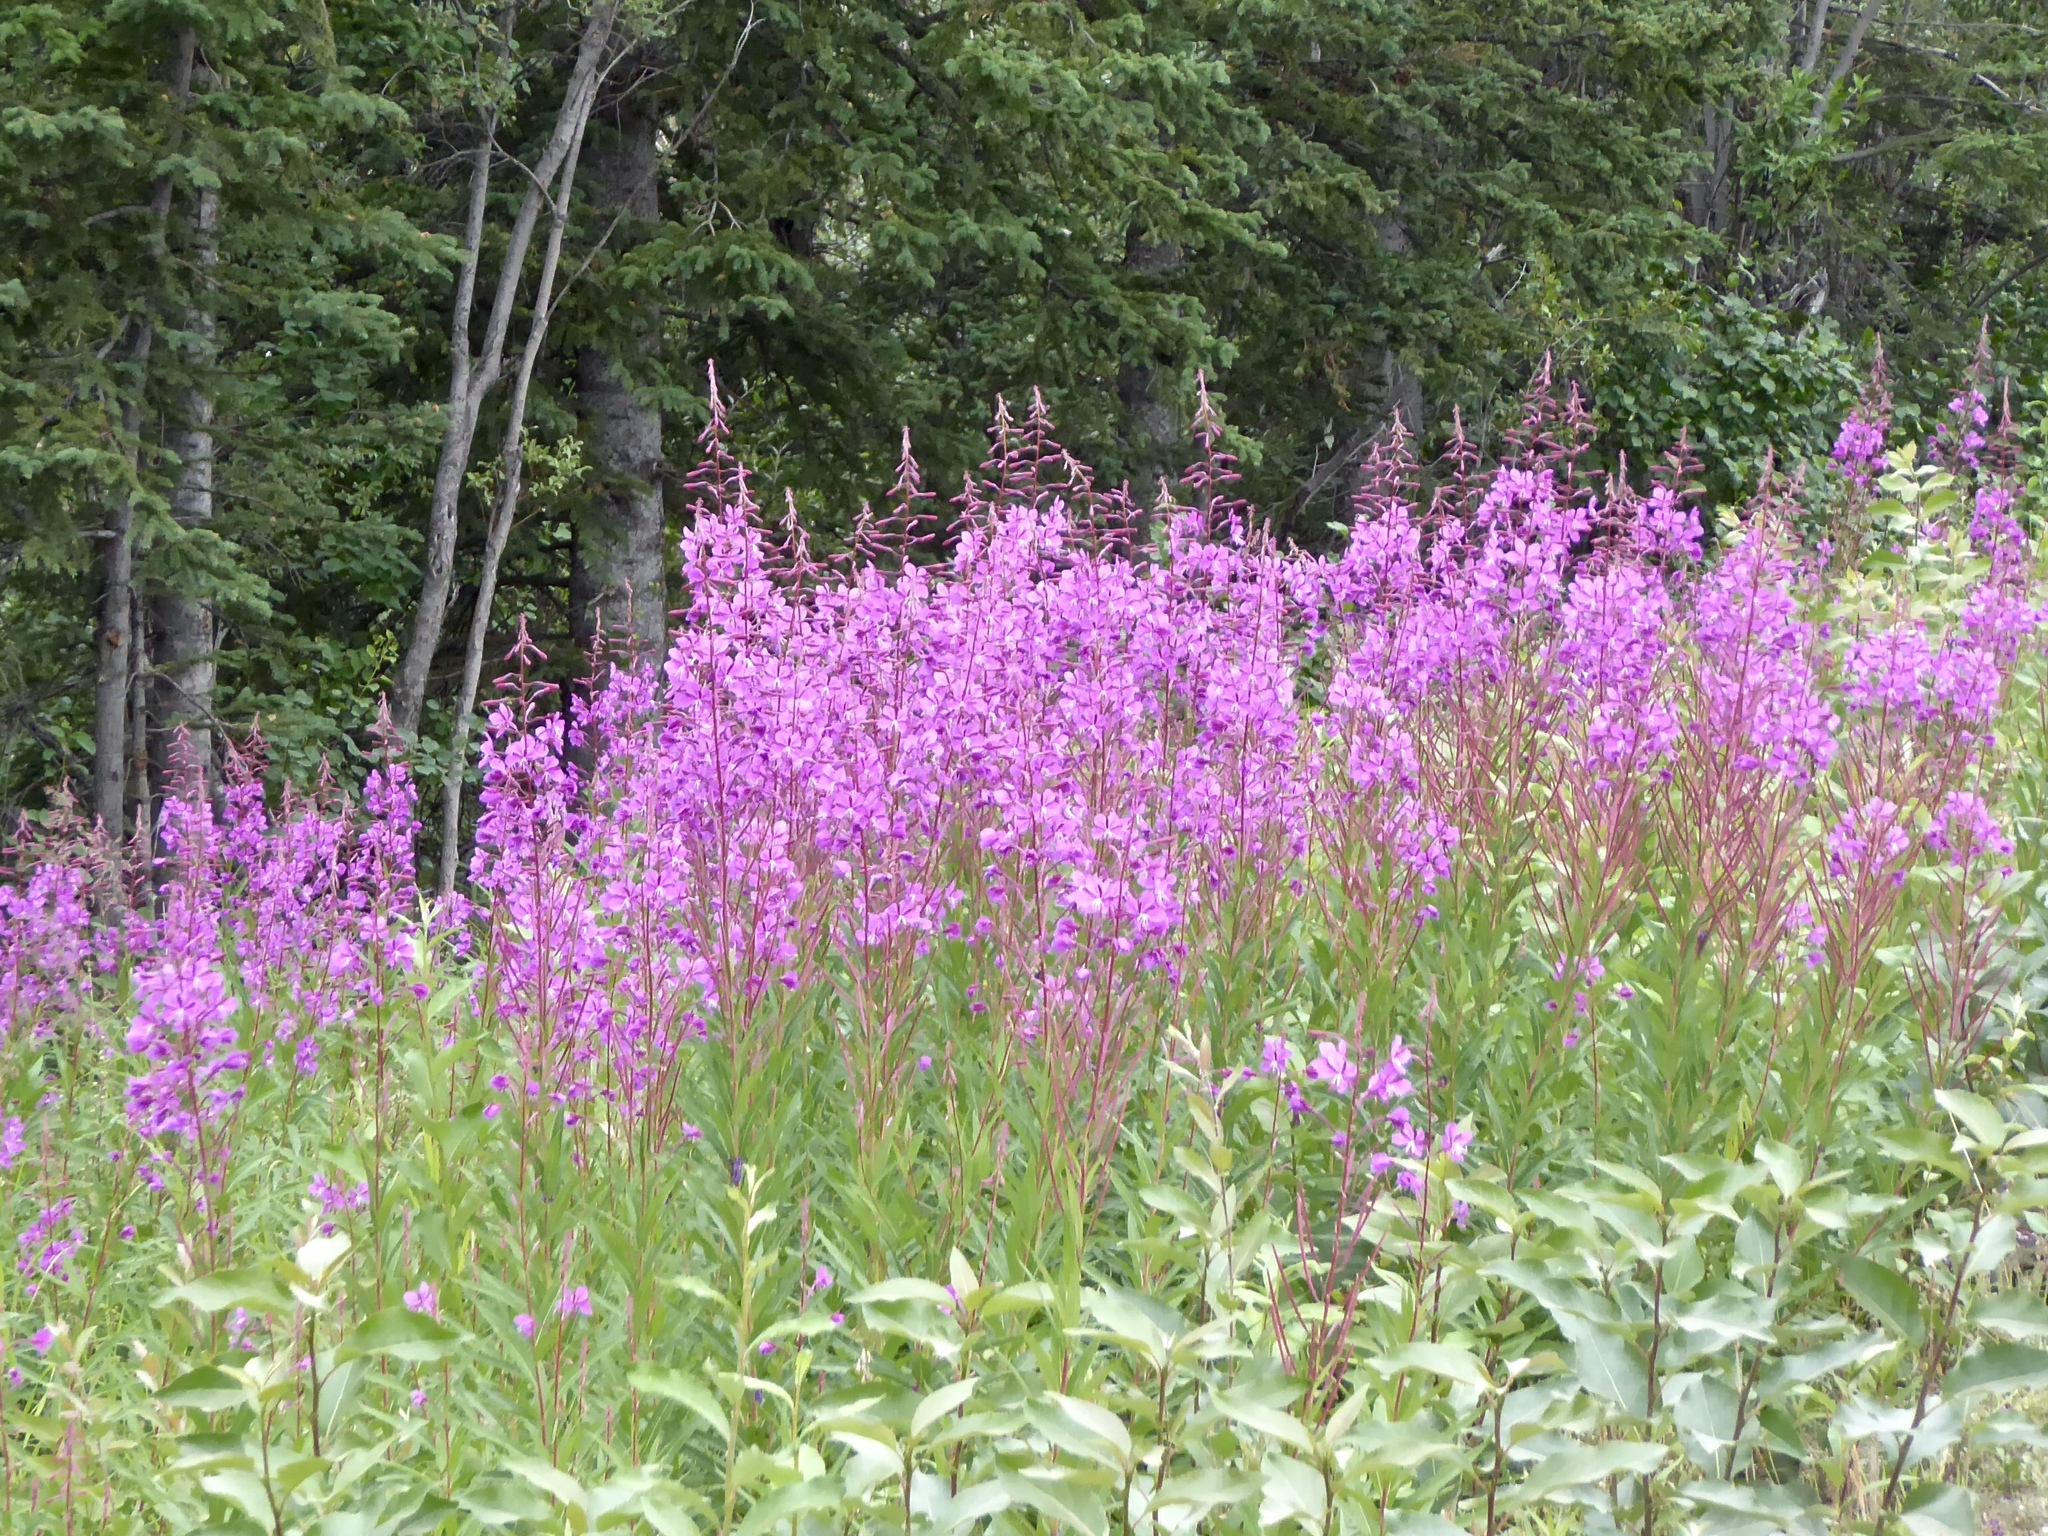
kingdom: Plantae
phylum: Tracheophyta
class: Magnoliopsida
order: Myrtales
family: Onagraceae
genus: Chamaenerion
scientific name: Chamaenerion angustifolium
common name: Fireweed
